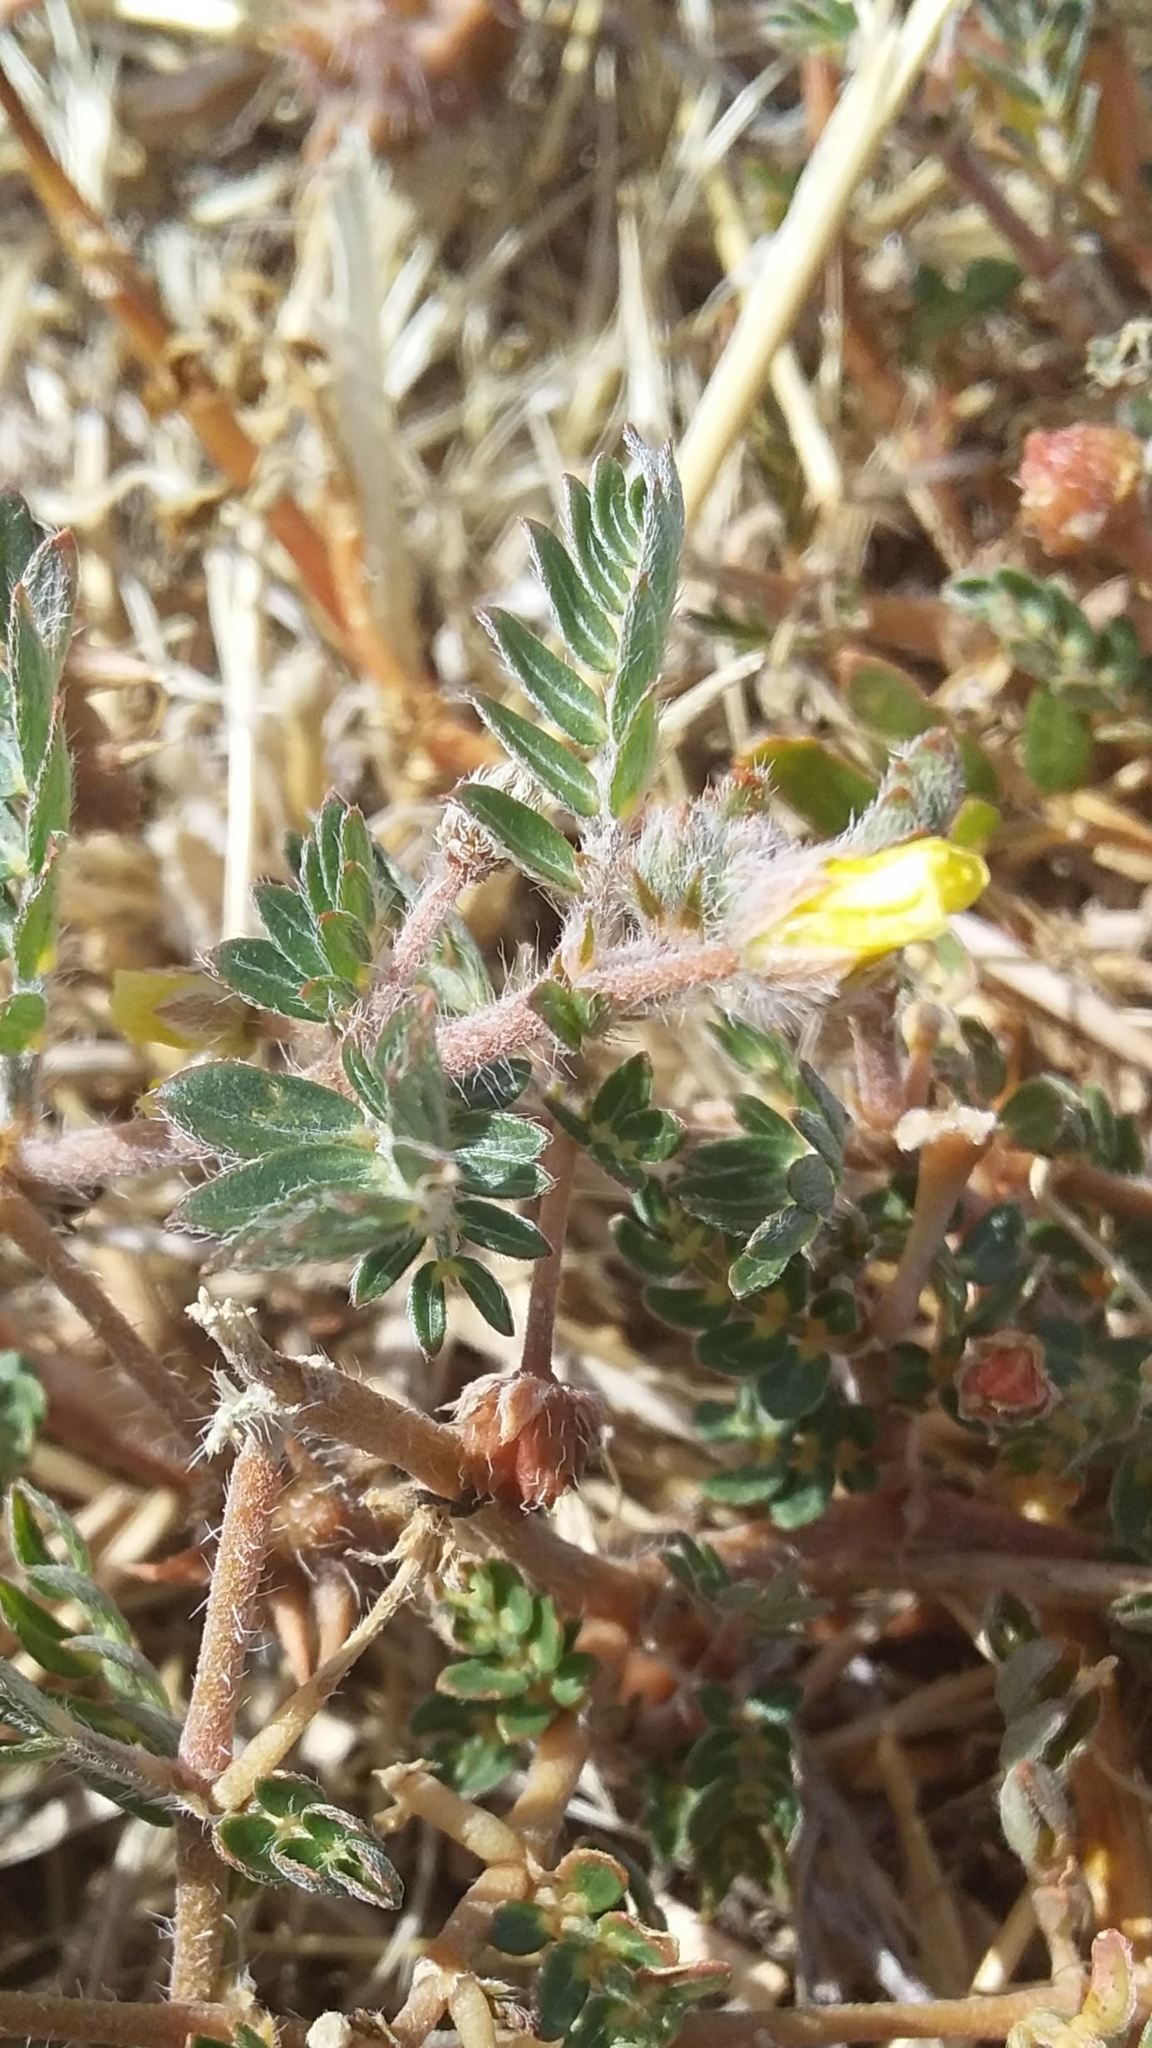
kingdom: Plantae
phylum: Tracheophyta
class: Magnoliopsida
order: Zygophyllales
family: Zygophyllaceae
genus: Tribulus
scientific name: Tribulus terrestris
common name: Puncturevine
